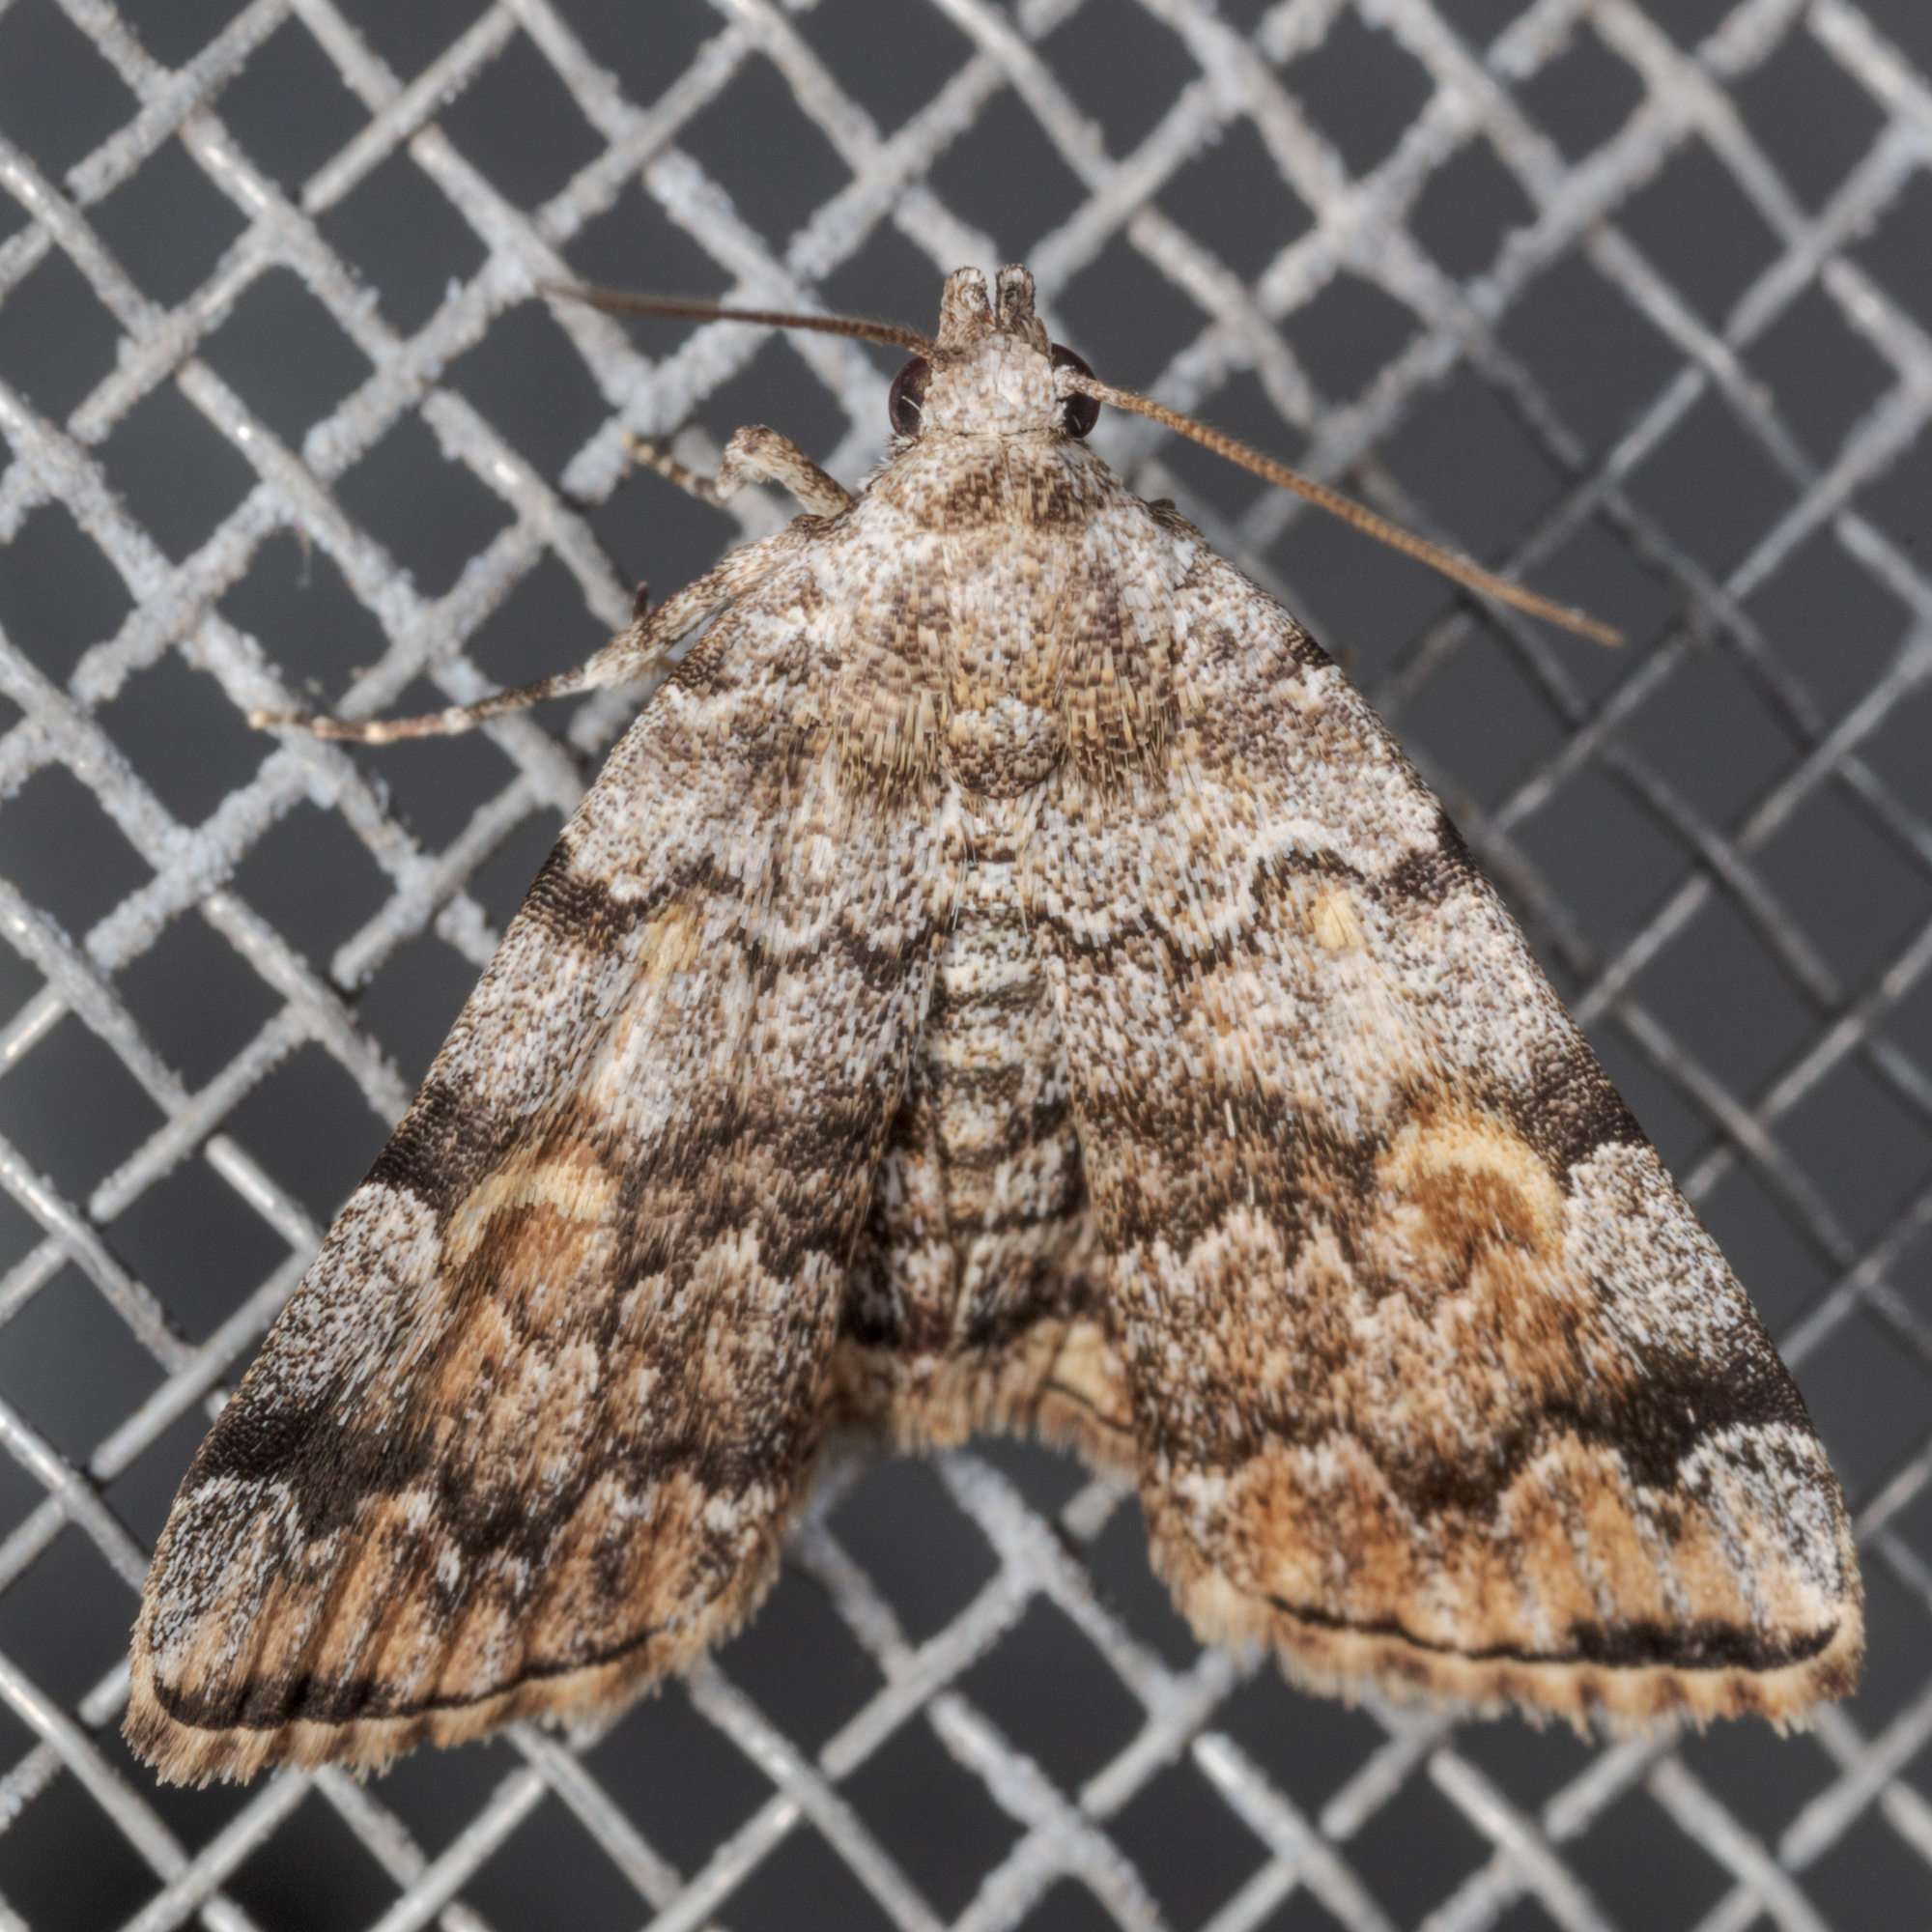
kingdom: Animalia
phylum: Arthropoda
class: Insecta
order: Lepidoptera
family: Erebidae
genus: Idia
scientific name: Idia americalis
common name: American idia moth
